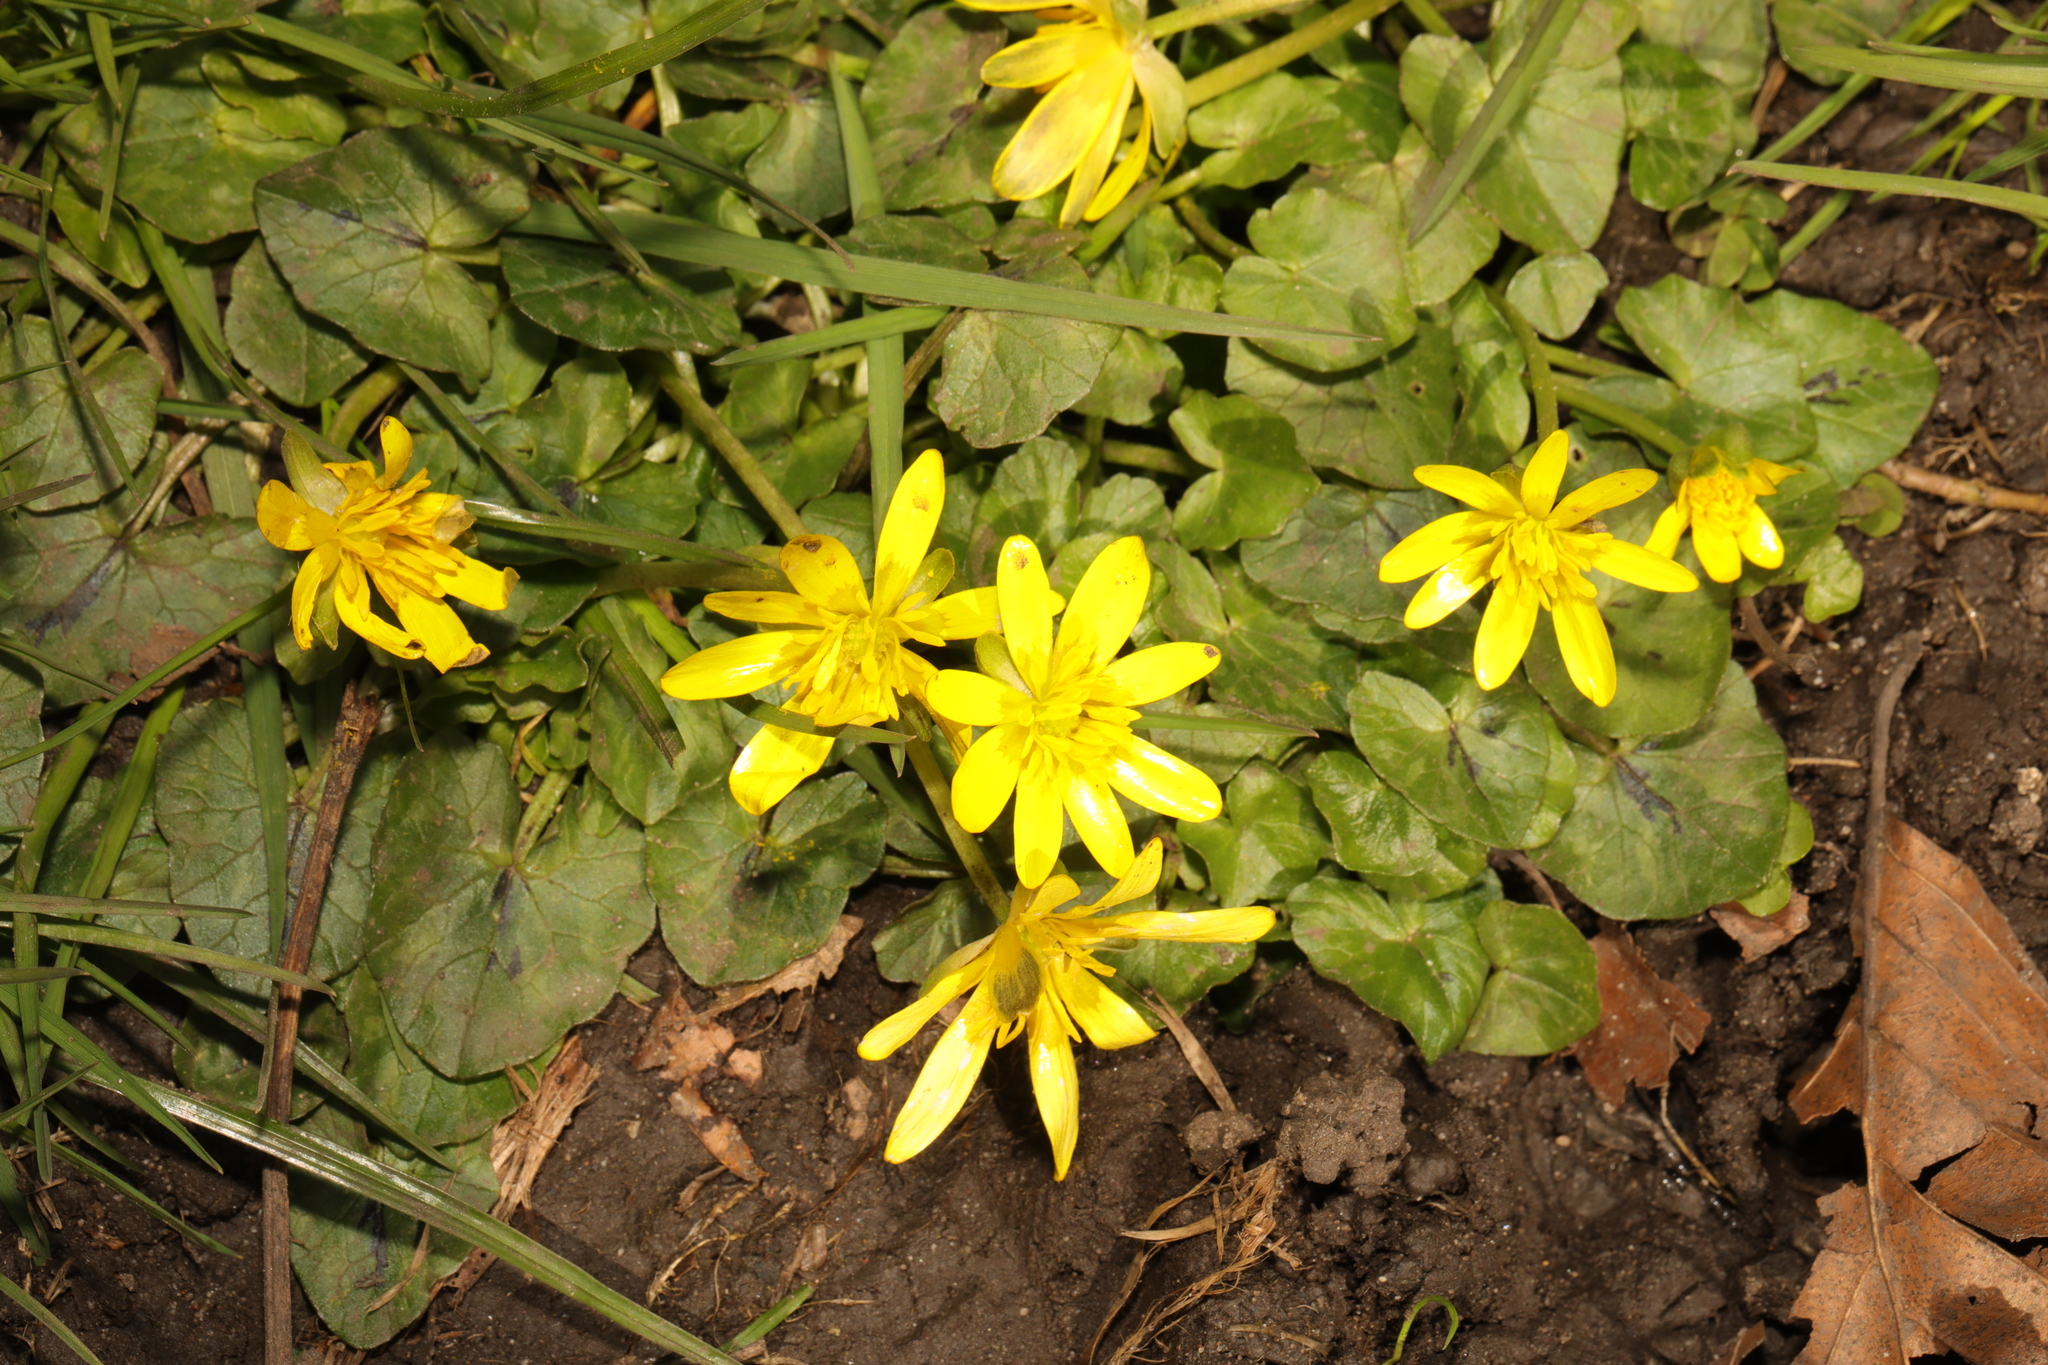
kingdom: Plantae
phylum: Tracheophyta
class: Magnoliopsida
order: Ranunculales
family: Ranunculaceae
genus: Ficaria
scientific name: Ficaria verna
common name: Lesser celandine
